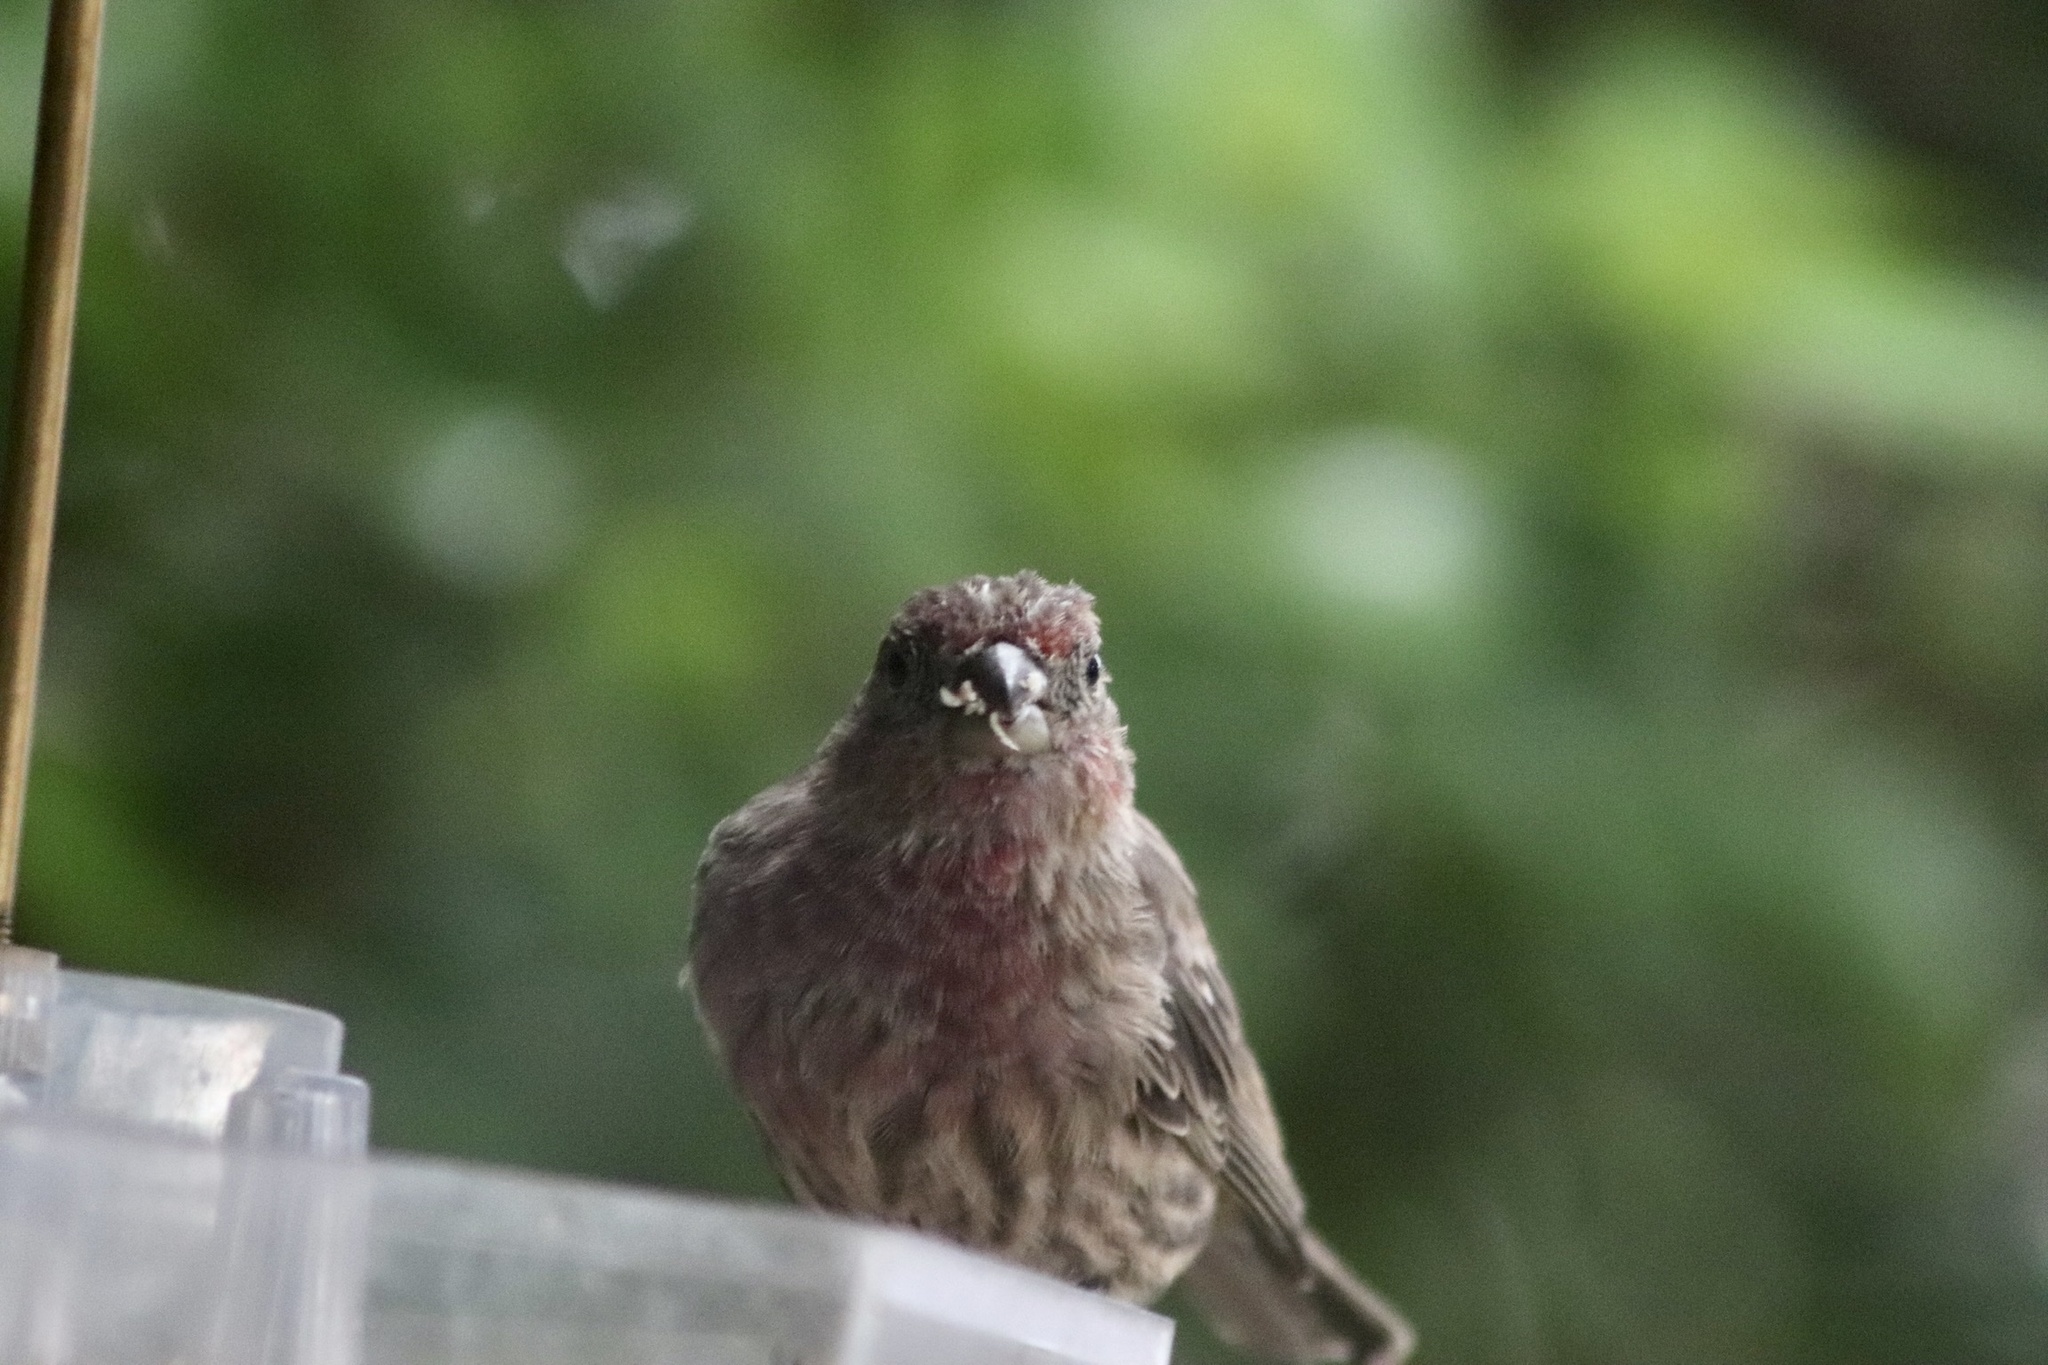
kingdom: Animalia
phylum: Chordata
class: Aves
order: Passeriformes
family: Fringillidae
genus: Haemorhous
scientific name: Haemorhous mexicanus
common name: House finch
